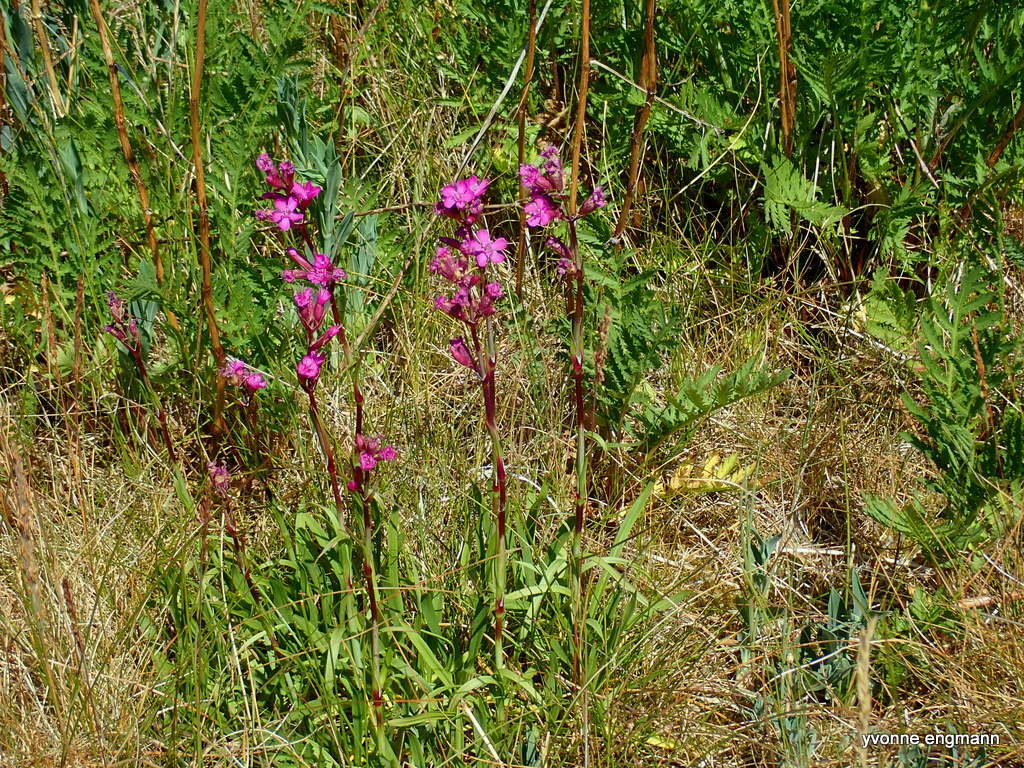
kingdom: Plantae
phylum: Tracheophyta
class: Magnoliopsida
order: Caryophyllales
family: Caryophyllaceae
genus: Viscaria
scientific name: Viscaria vulgaris
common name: Clammy campion
